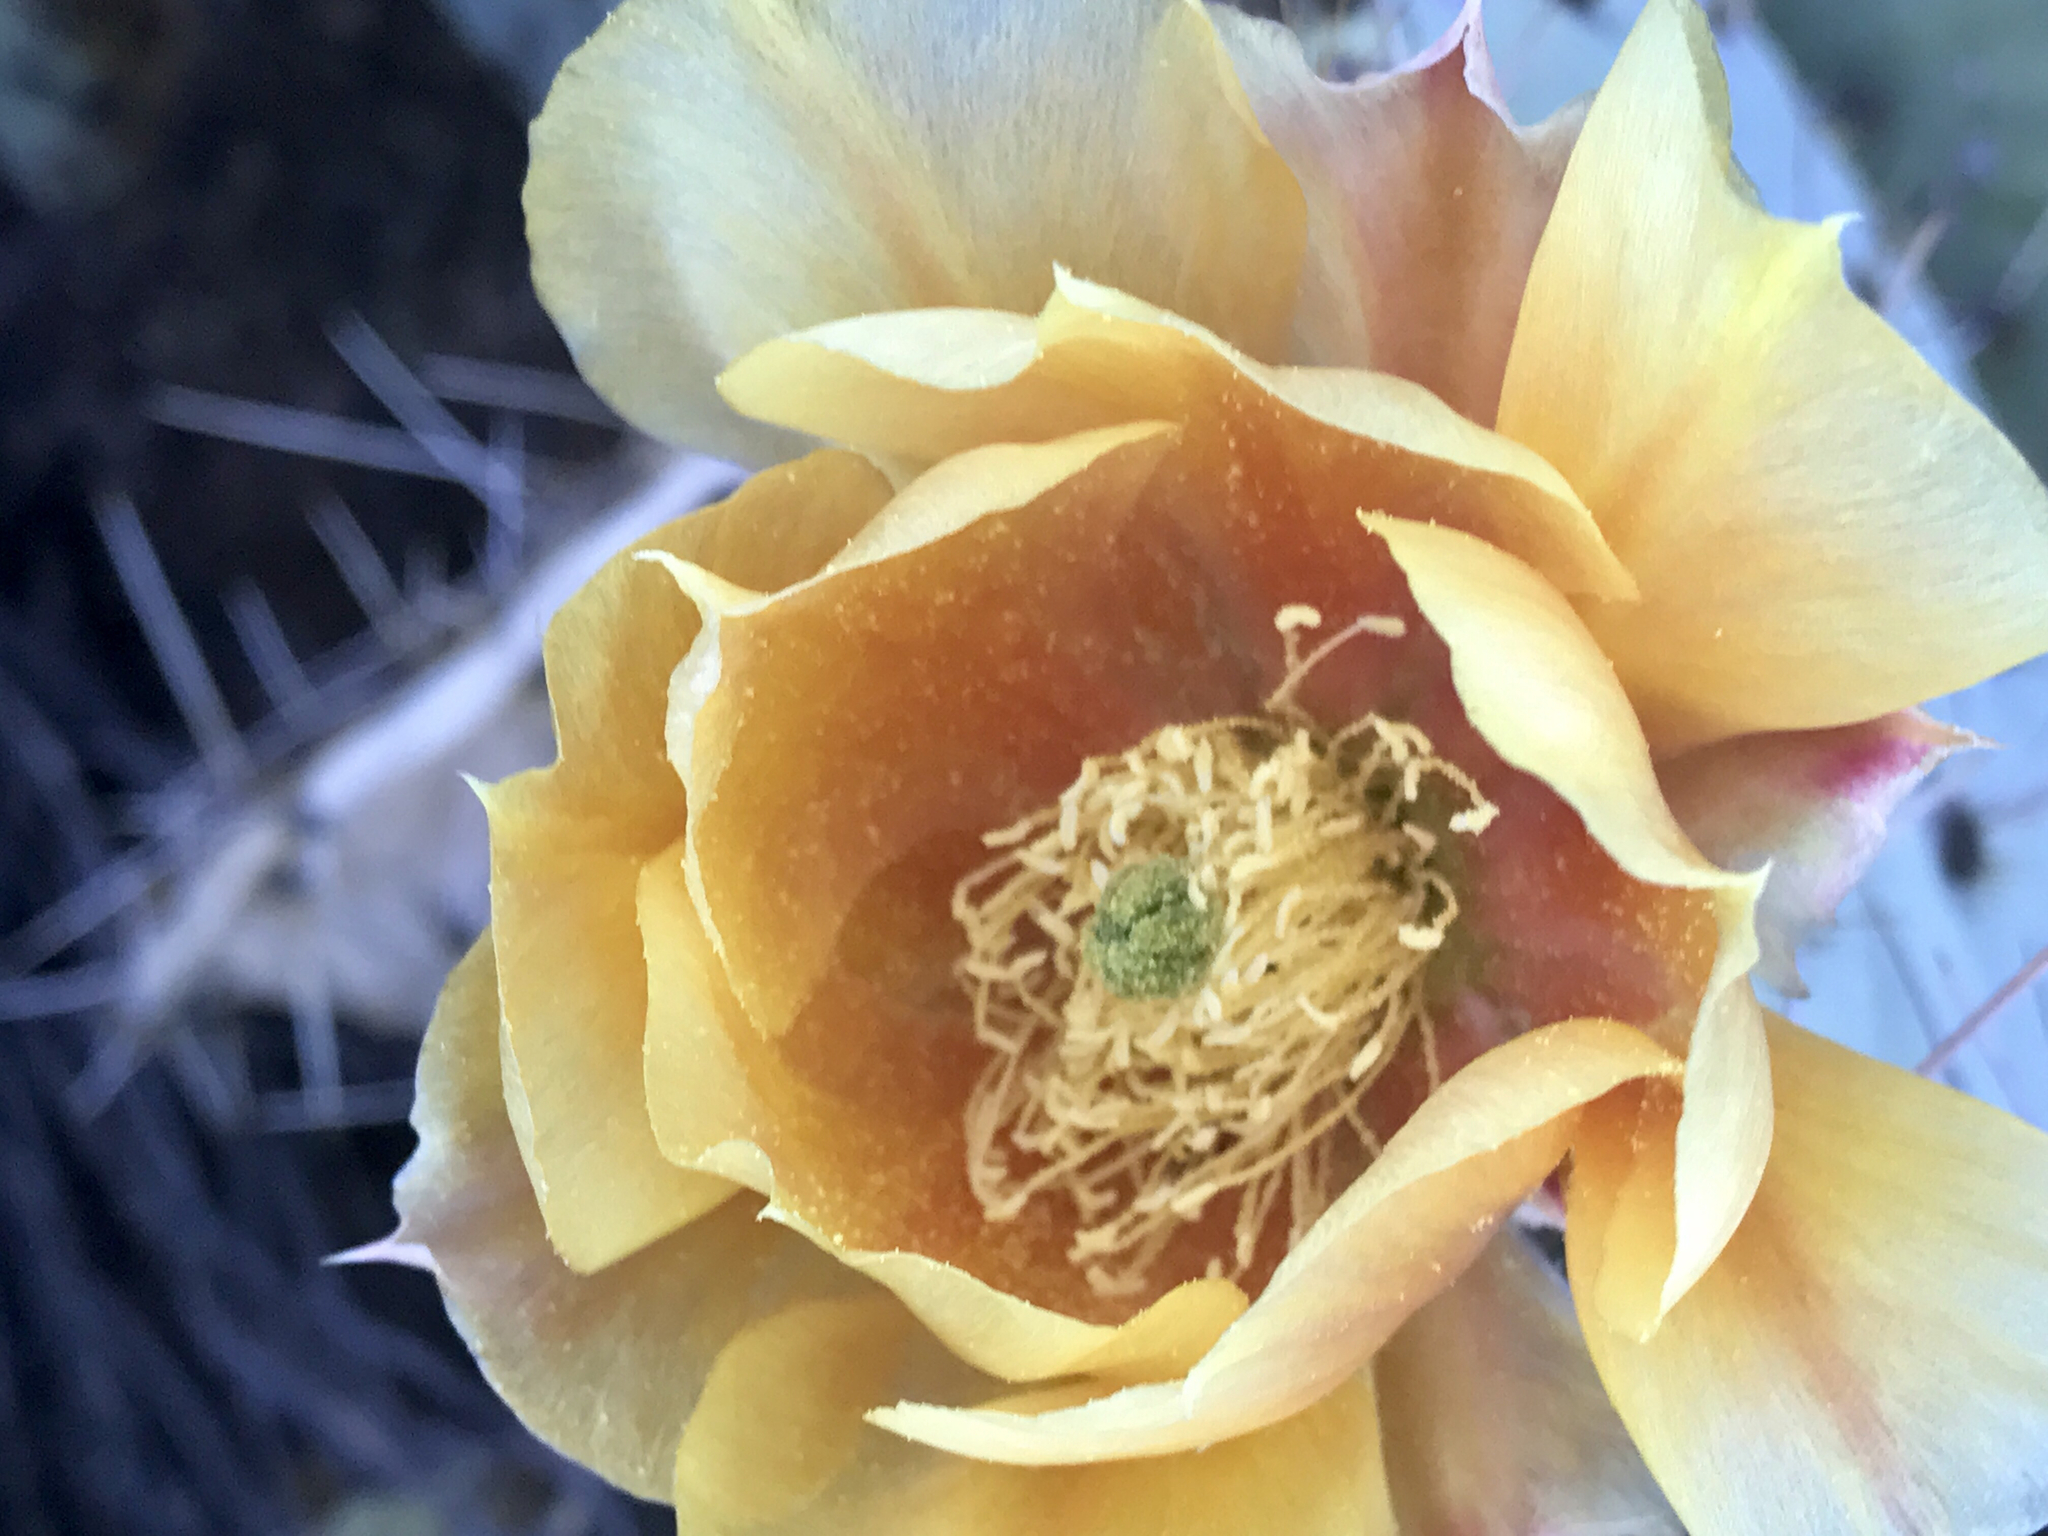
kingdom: Plantae
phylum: Tracheophyta
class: Magnoliopsida
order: Caryophyllales
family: Cactaceae
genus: Opuntia
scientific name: Opuntia engelmannii
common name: Cactus-apple
